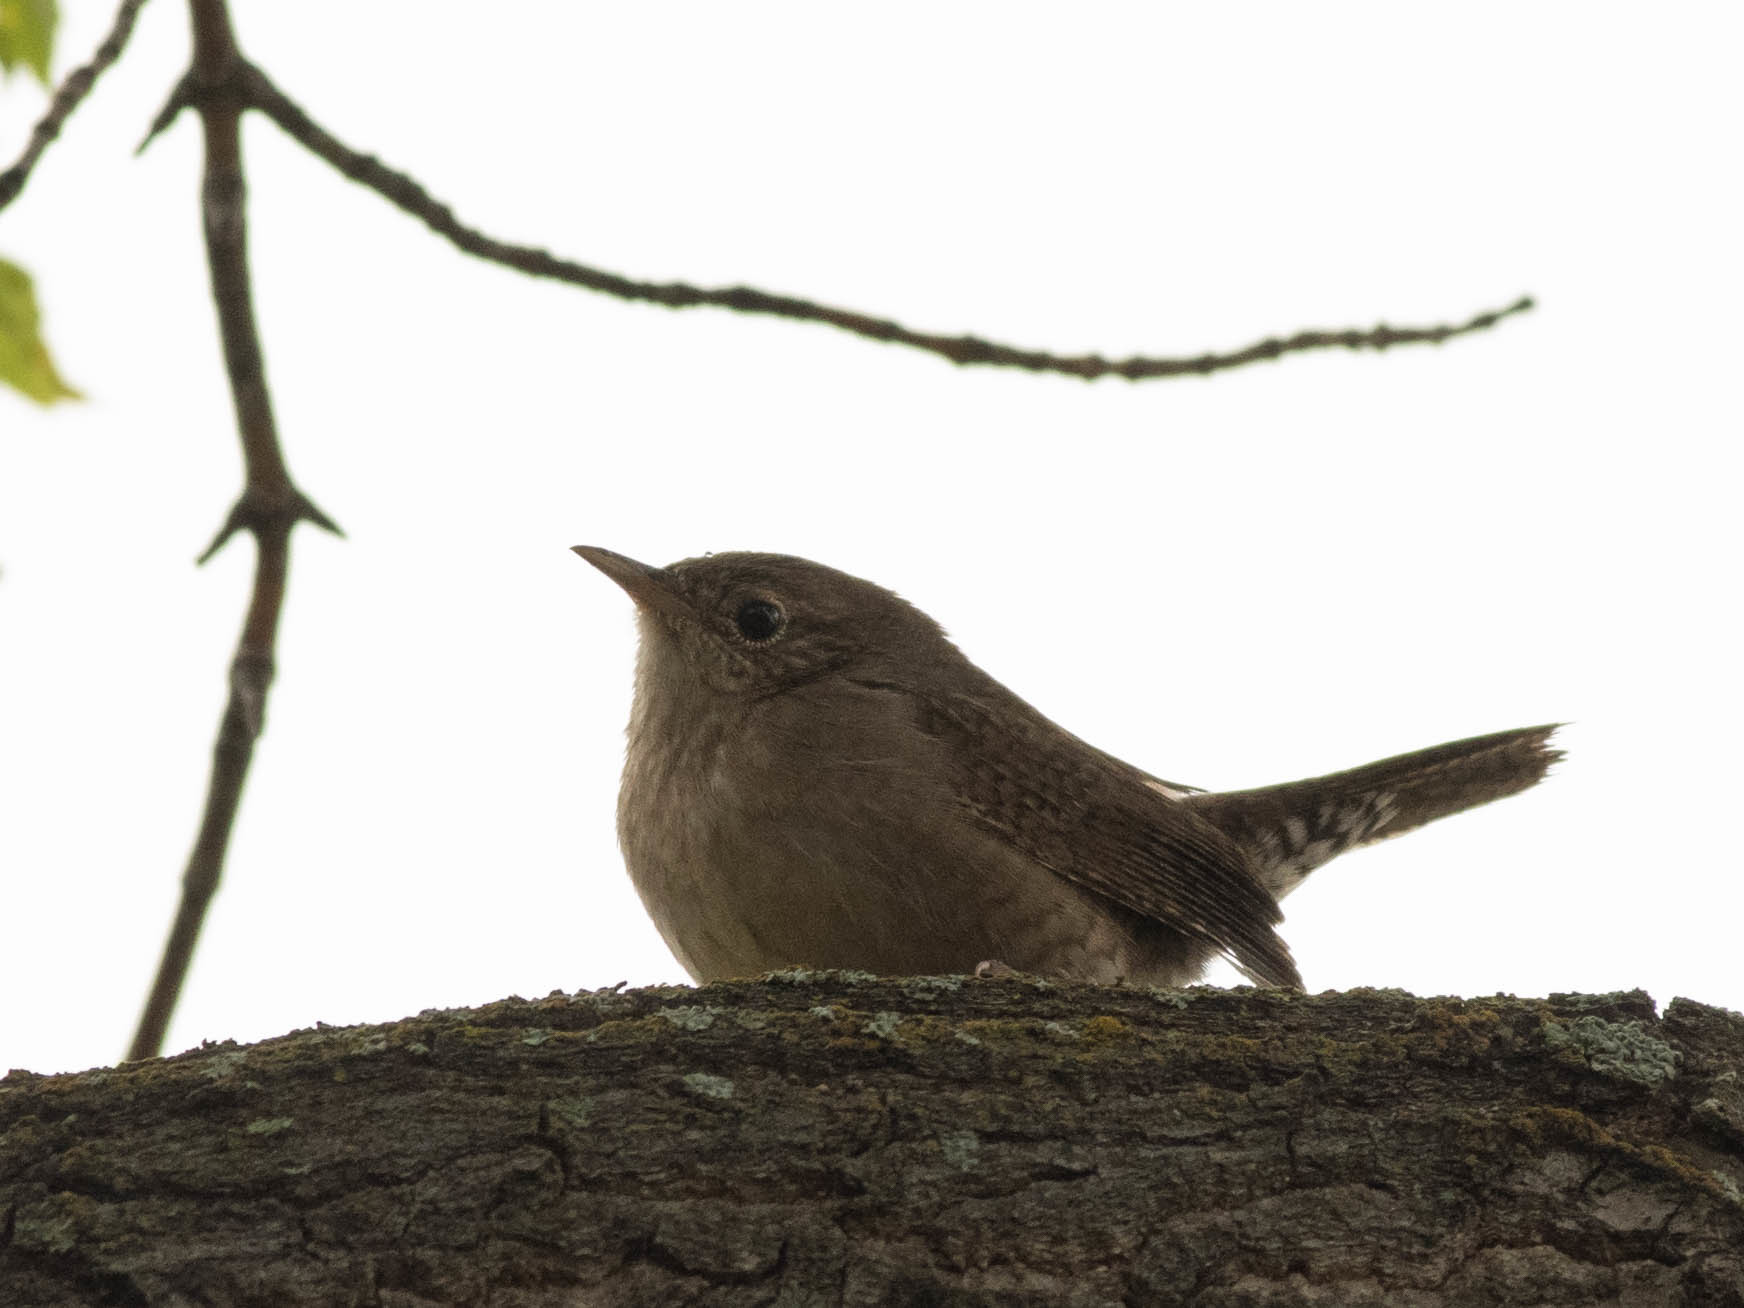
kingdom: Animalia
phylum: Chordata
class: Aves
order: Passeriformes
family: Troglodytidae
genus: Troglodytes
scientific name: Troglodytes aedon
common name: House wren
